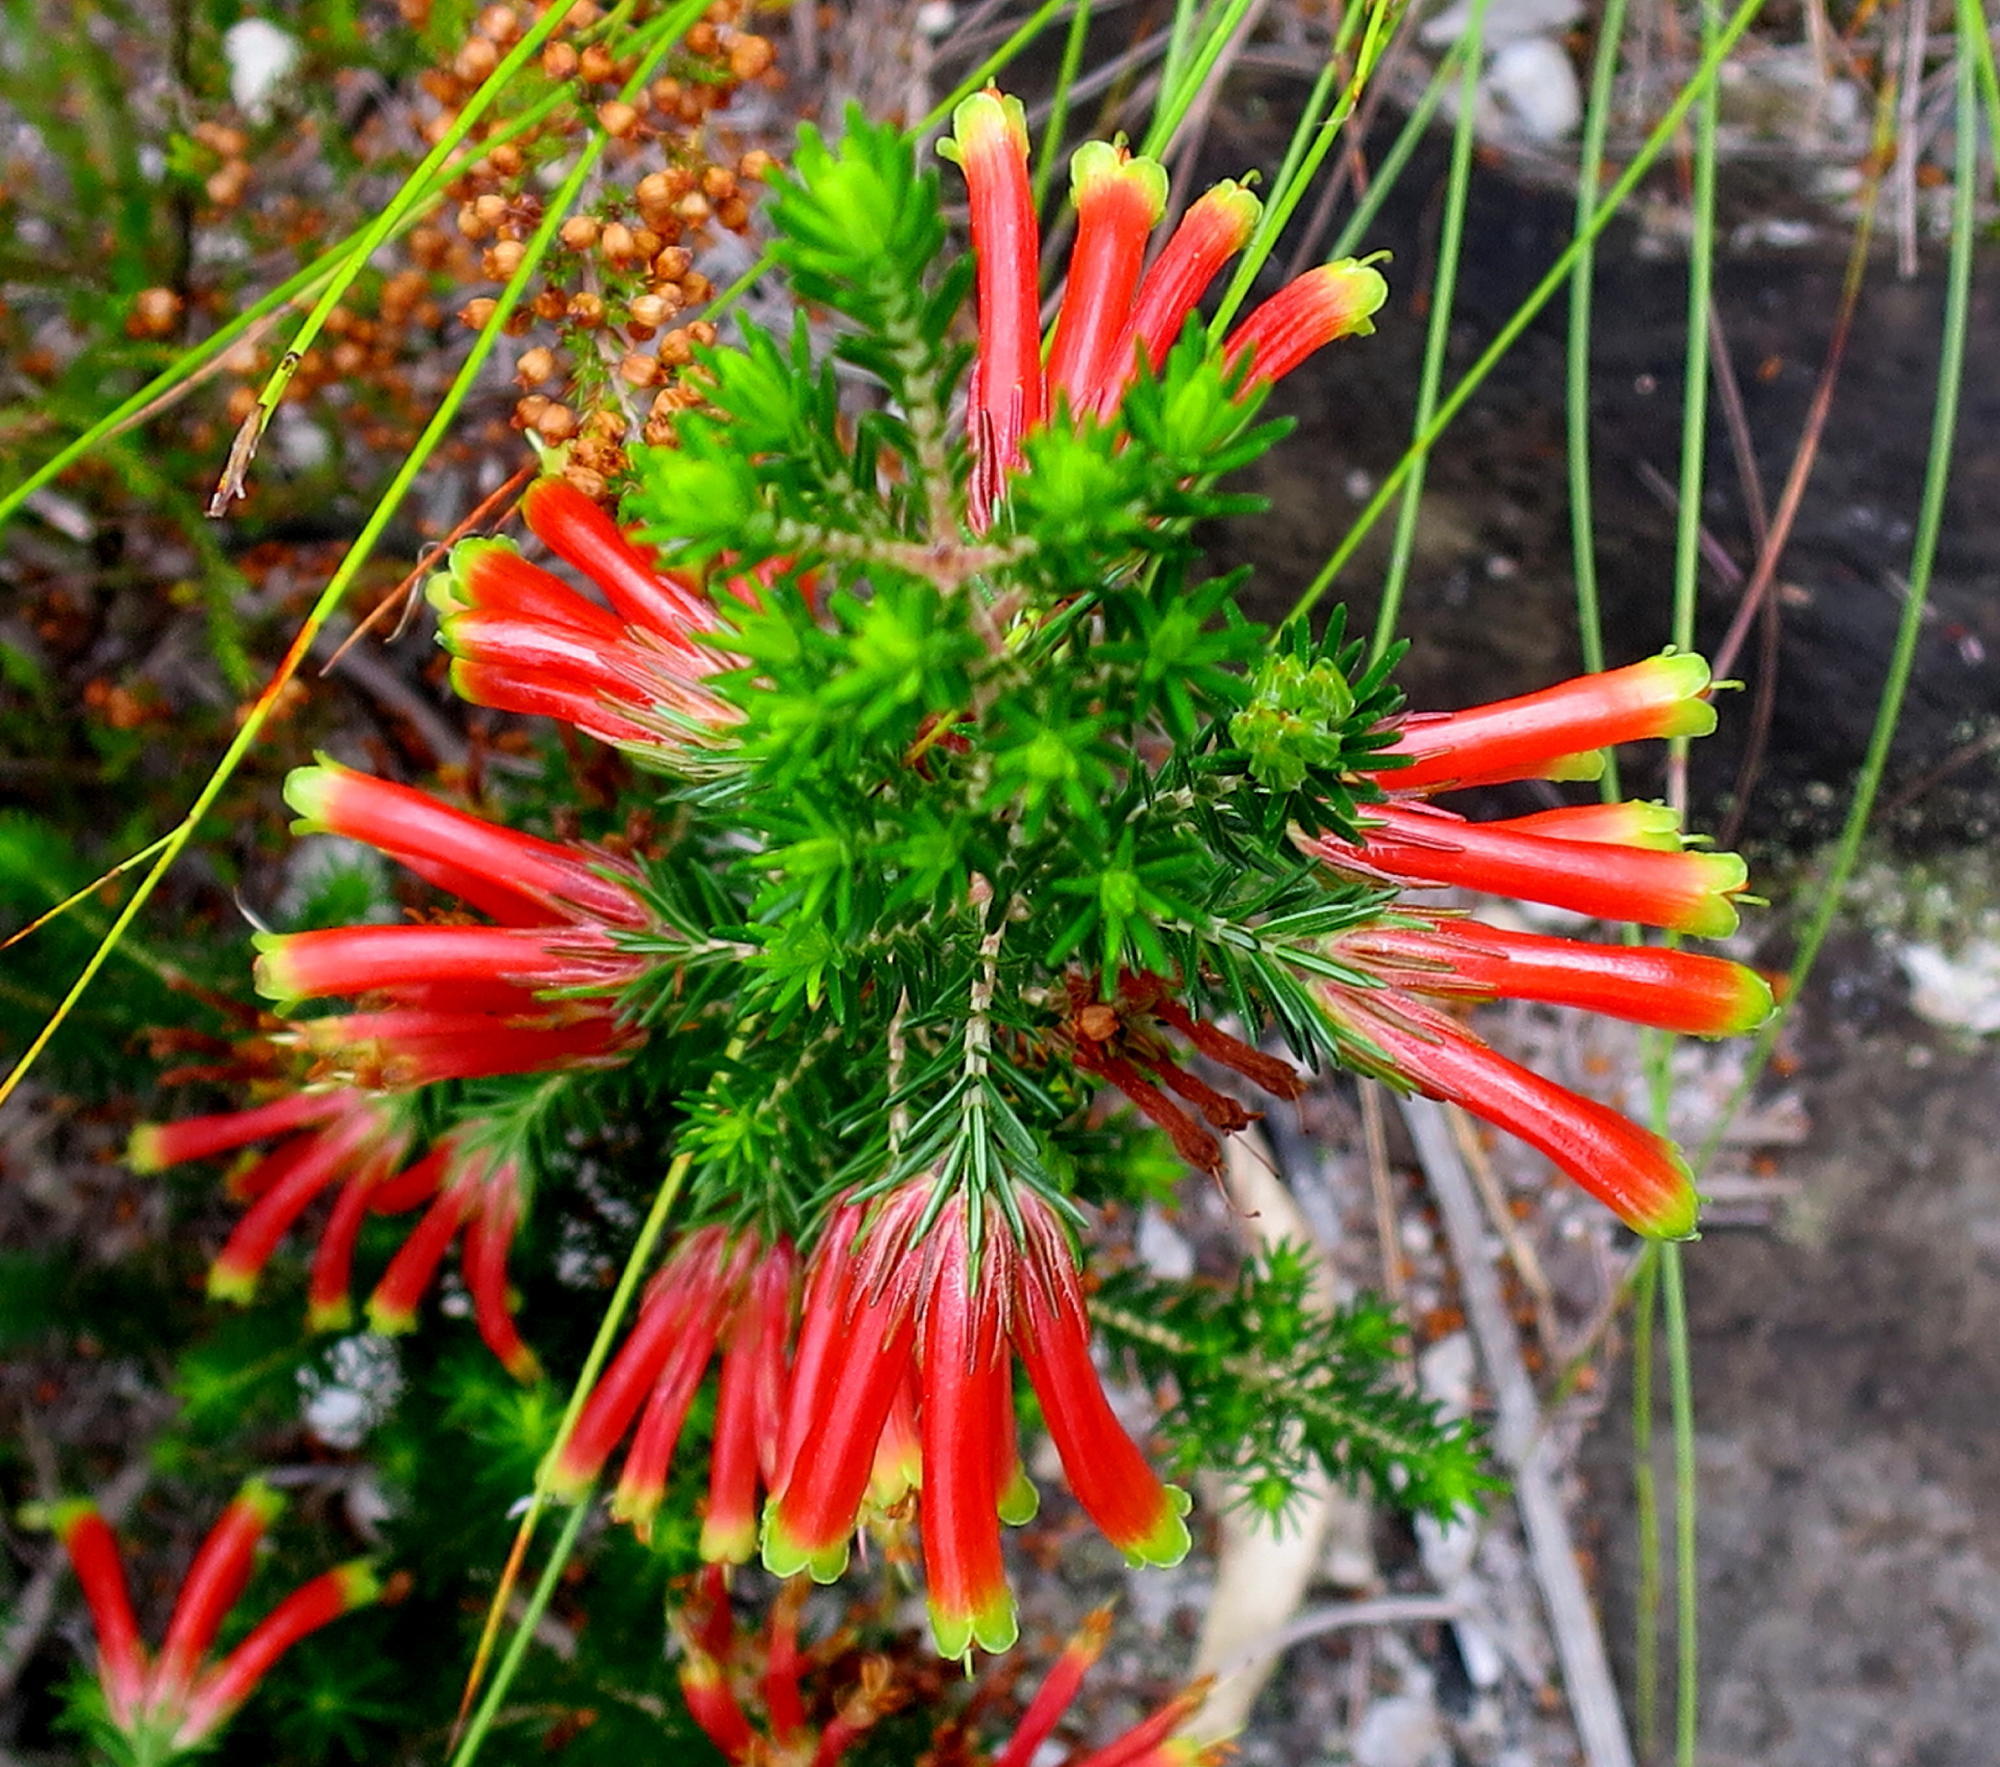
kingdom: Plantae
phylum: Tracheophyta
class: Magnoliopsida
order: Ericales
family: Ericaceae
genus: Erica
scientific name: Erica unicolor
